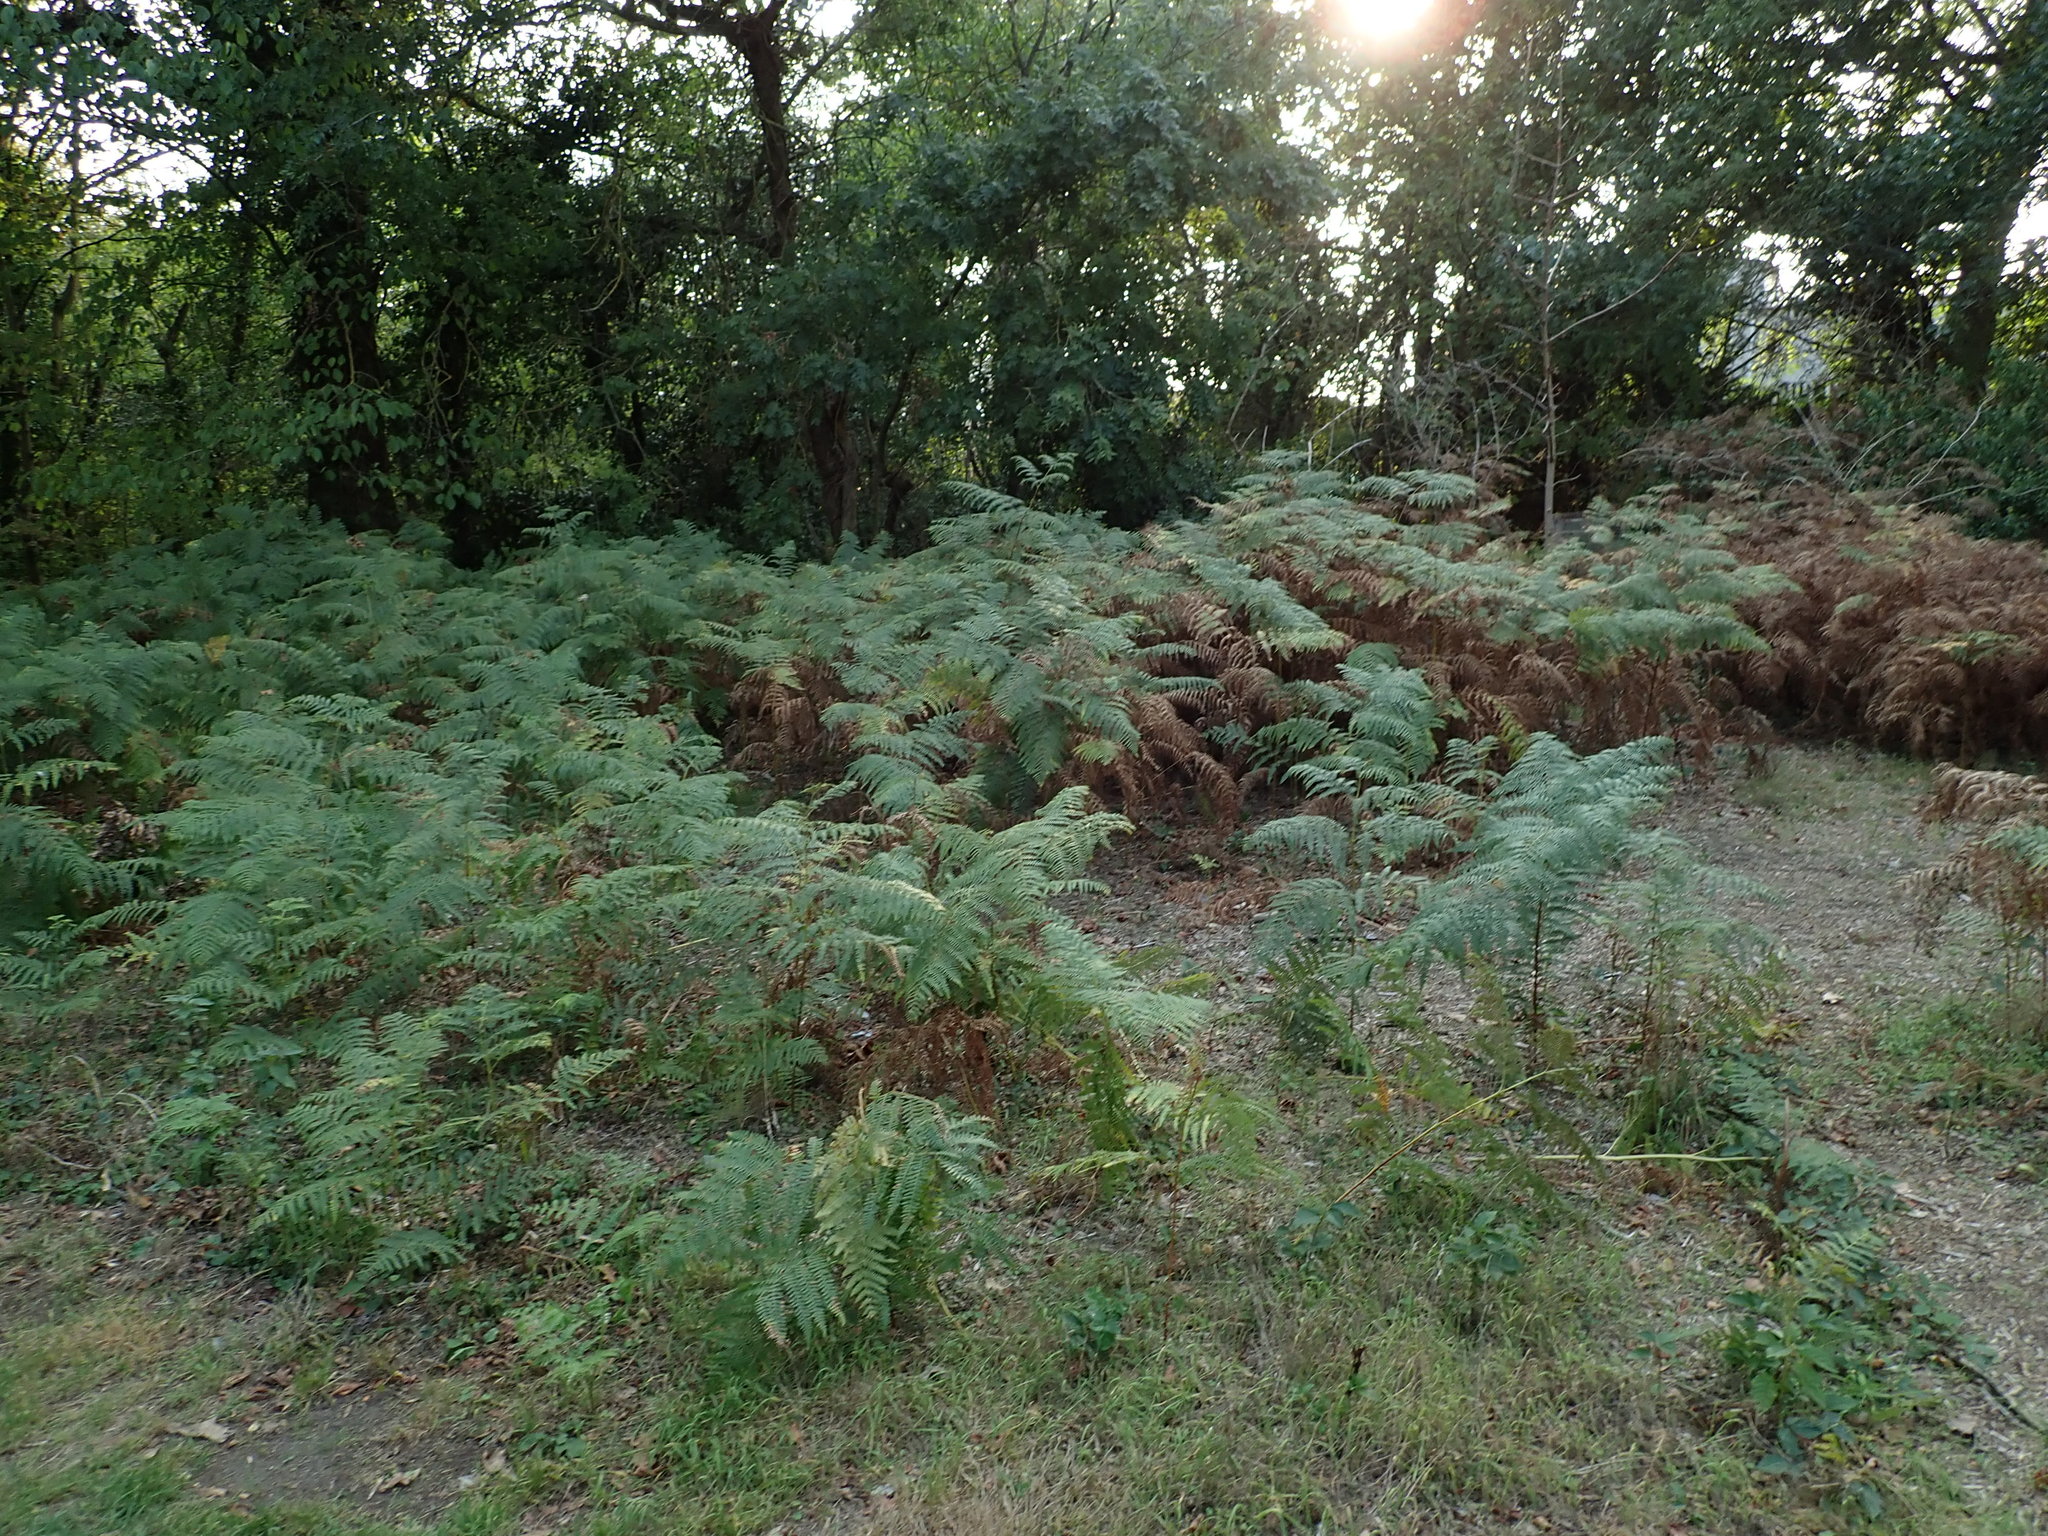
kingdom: Plantae
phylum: Tracheophyta
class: Polypodiopsida
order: Polypodiales
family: Dennstaedtiaceae
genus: Pteridium
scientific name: Pteridium aquilinum
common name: Bracken
